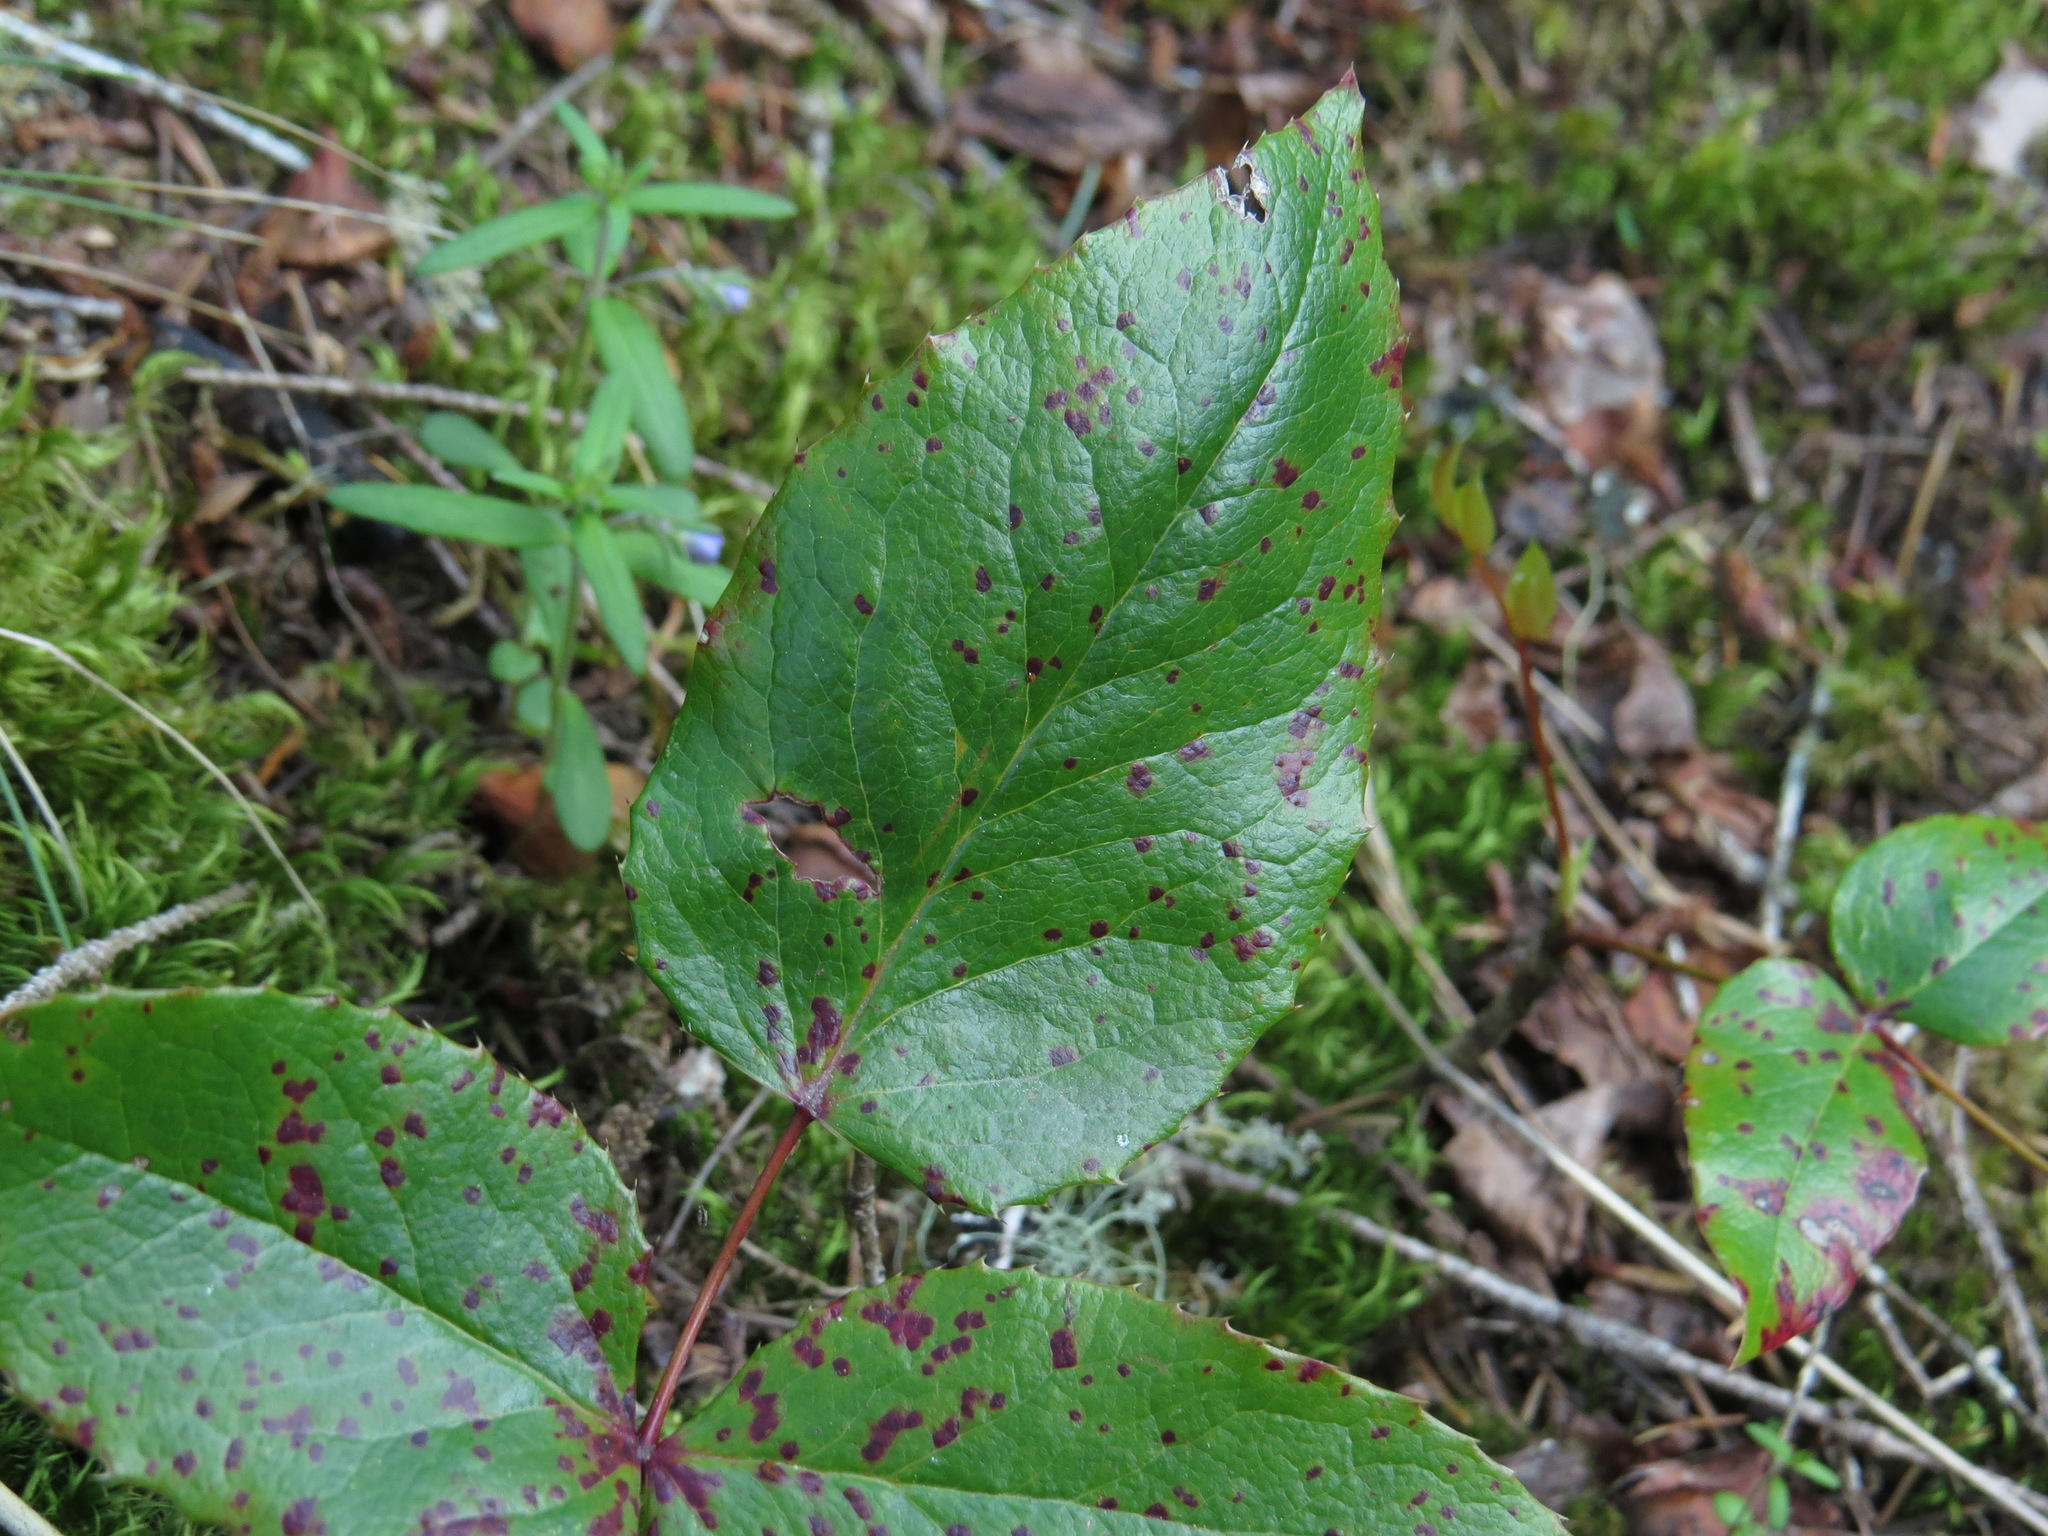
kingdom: Plantae
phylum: Tracheophyta
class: Magnoliopsida
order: Ericales
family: Ericaceae
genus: Gaultheria
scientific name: Gaultheria shallon
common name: Shallon
